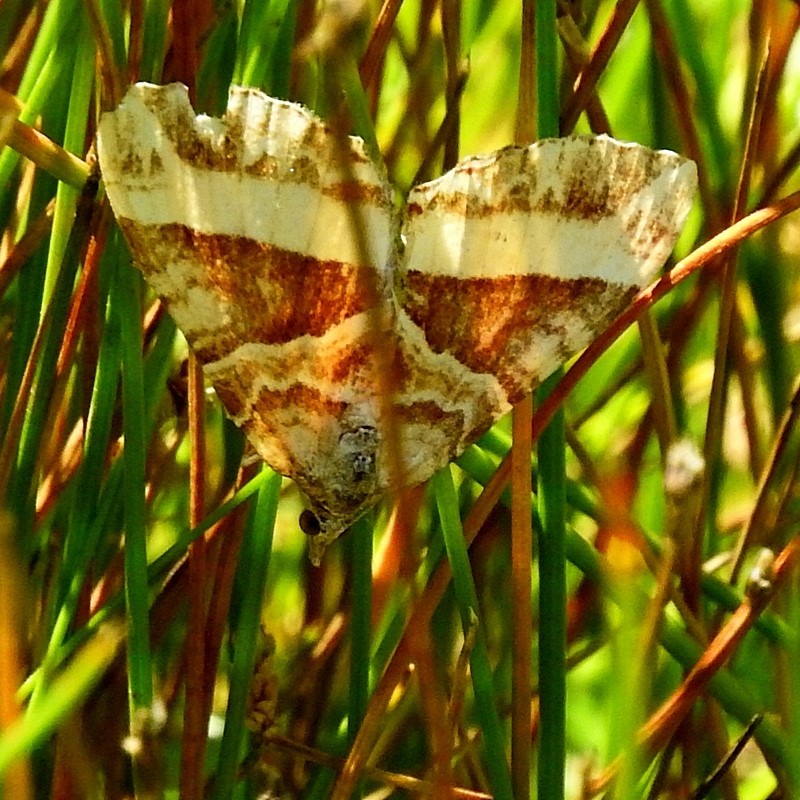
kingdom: Animalia
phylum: Arthropoda
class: Insecta
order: Lepidoptera
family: Geometridae
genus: Chrysolarentia
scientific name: Chrysolarentia conifasciata
